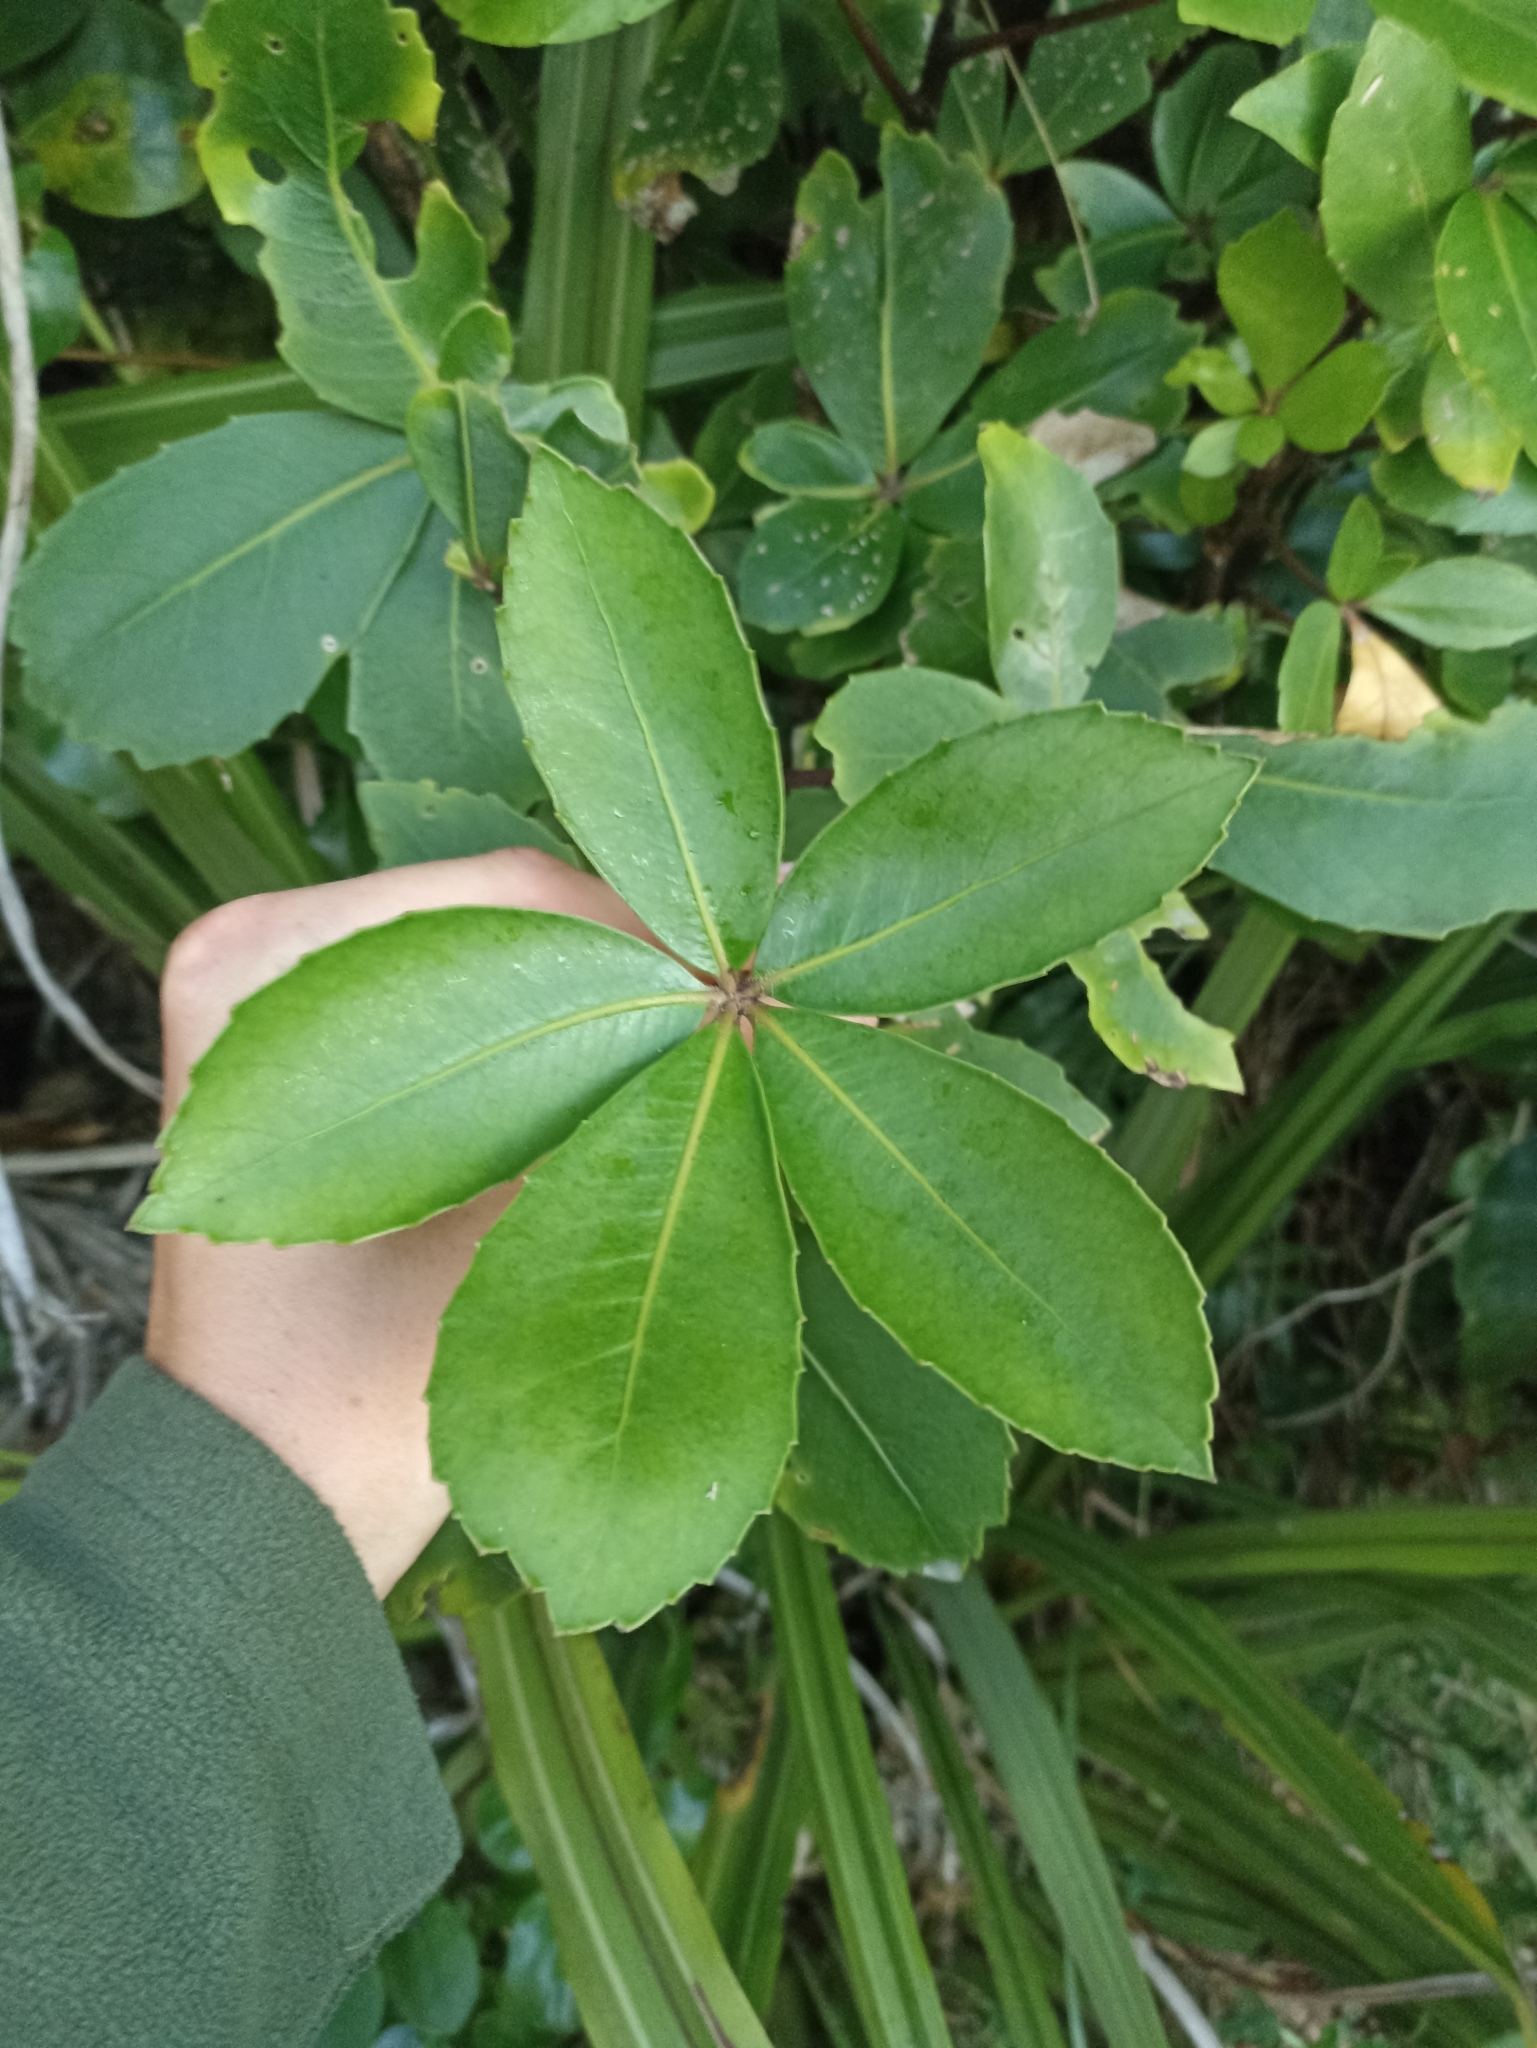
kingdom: Plantae
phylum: Tracheophyta
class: Magnoliopsida
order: Apiales
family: Araliaceae
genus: Neopanax
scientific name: Neopanax colensoi
